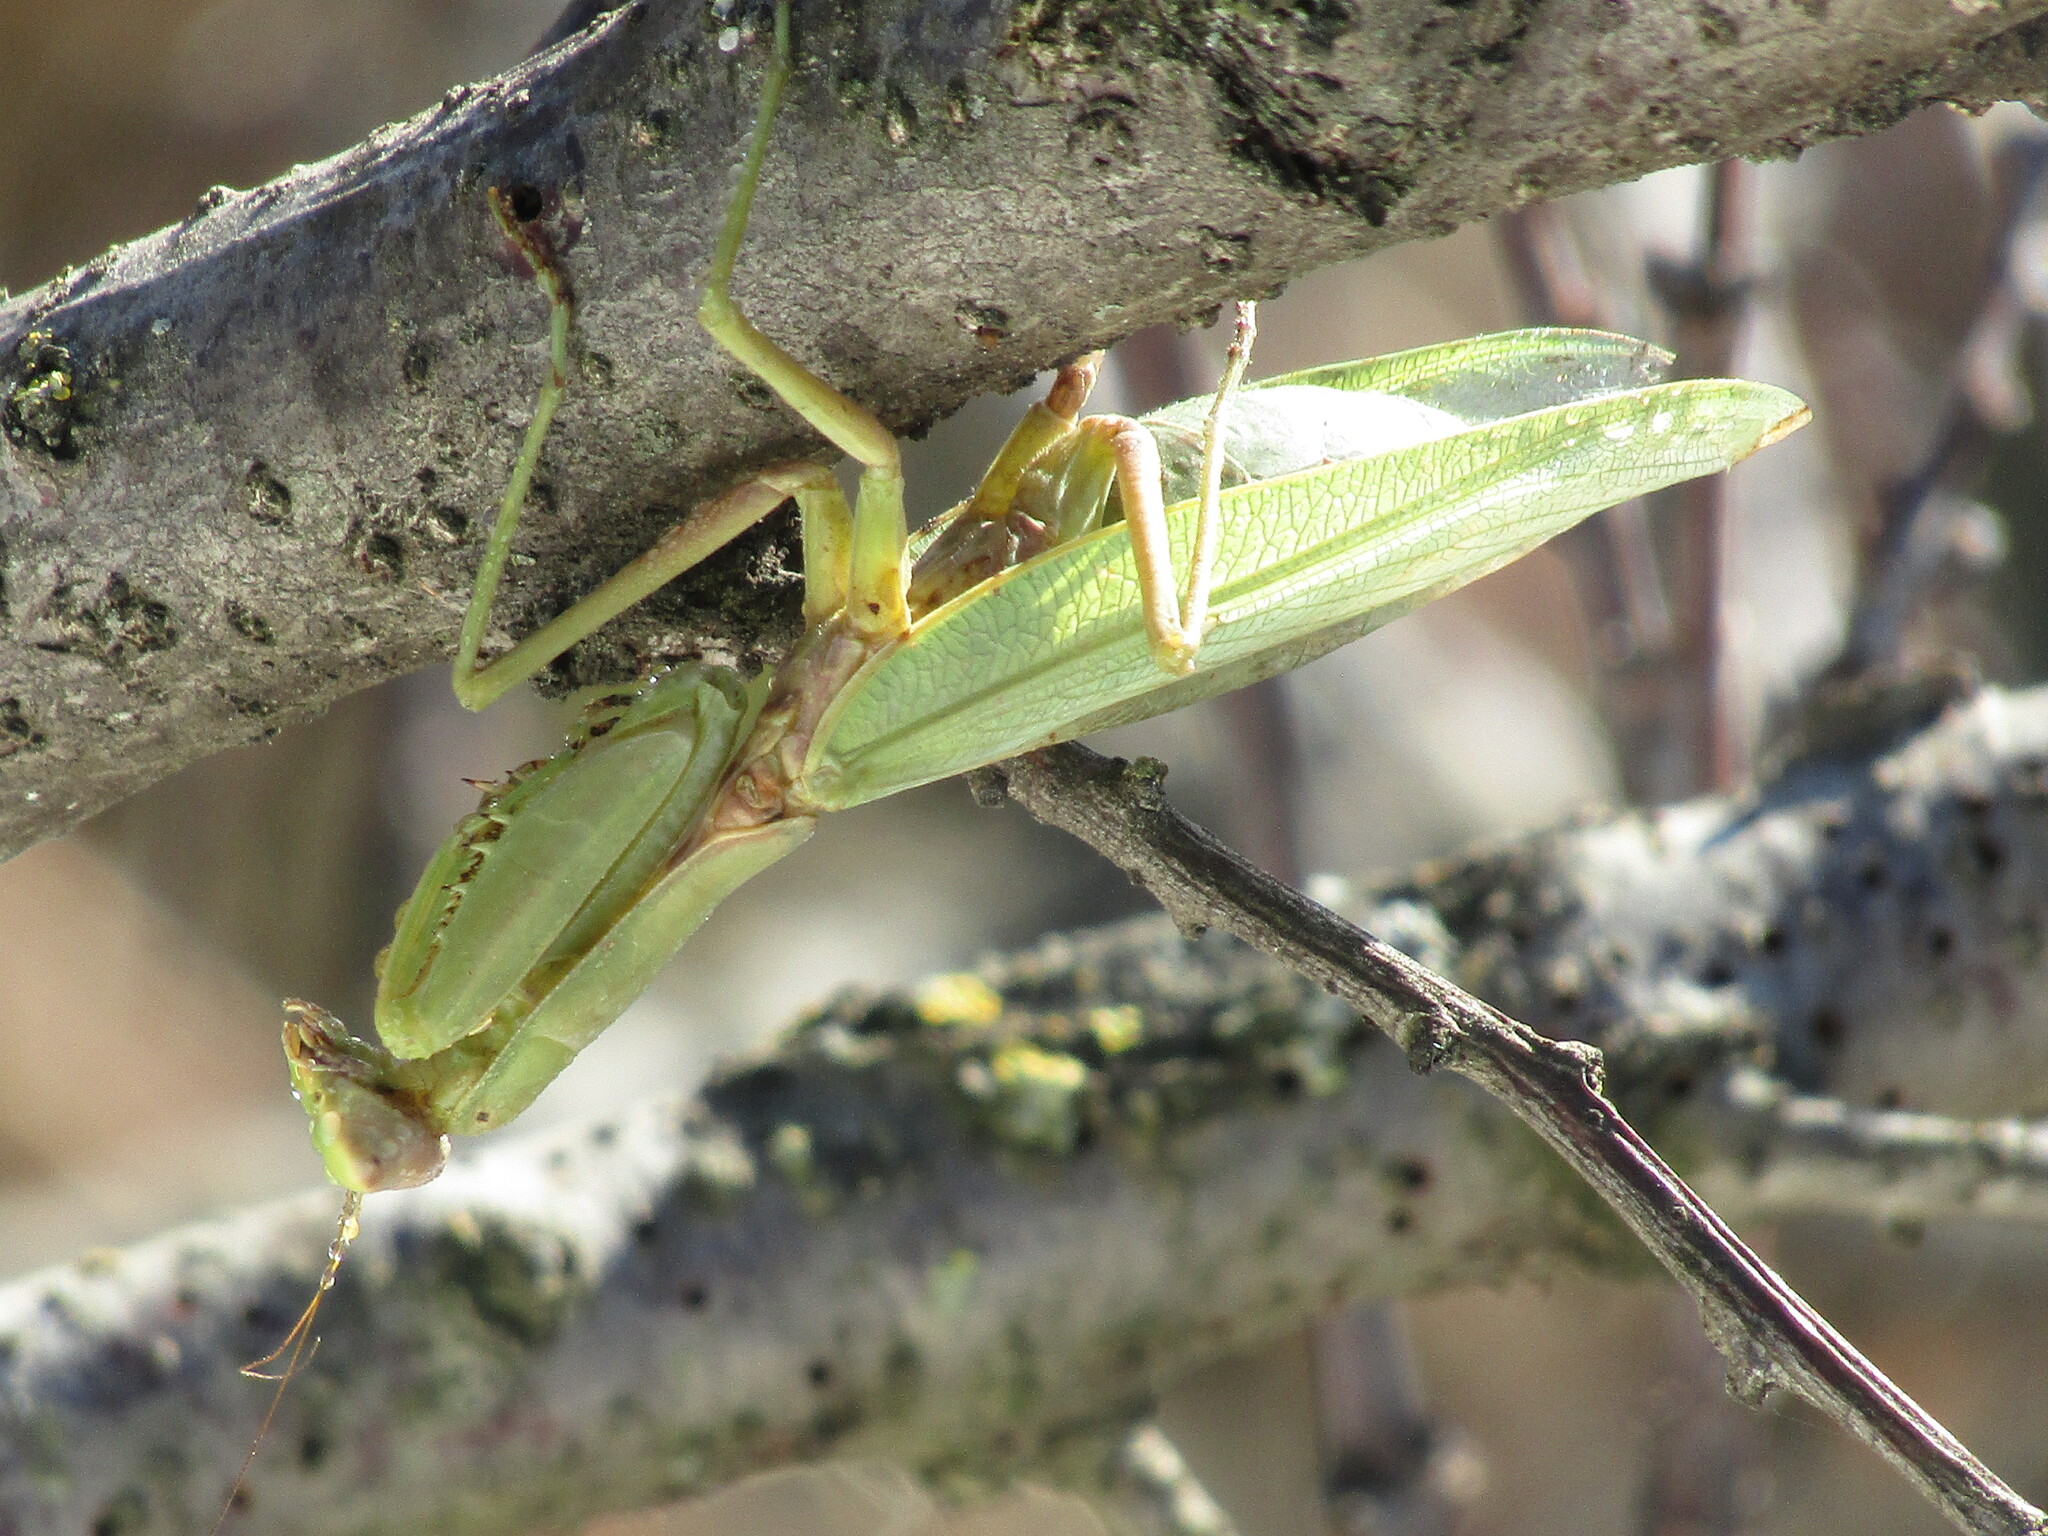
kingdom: Animalia
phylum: Arthropoda
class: Insecta
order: Mantodea
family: Mantidae
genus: Hierodula
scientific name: Hierodula transcaucasica
